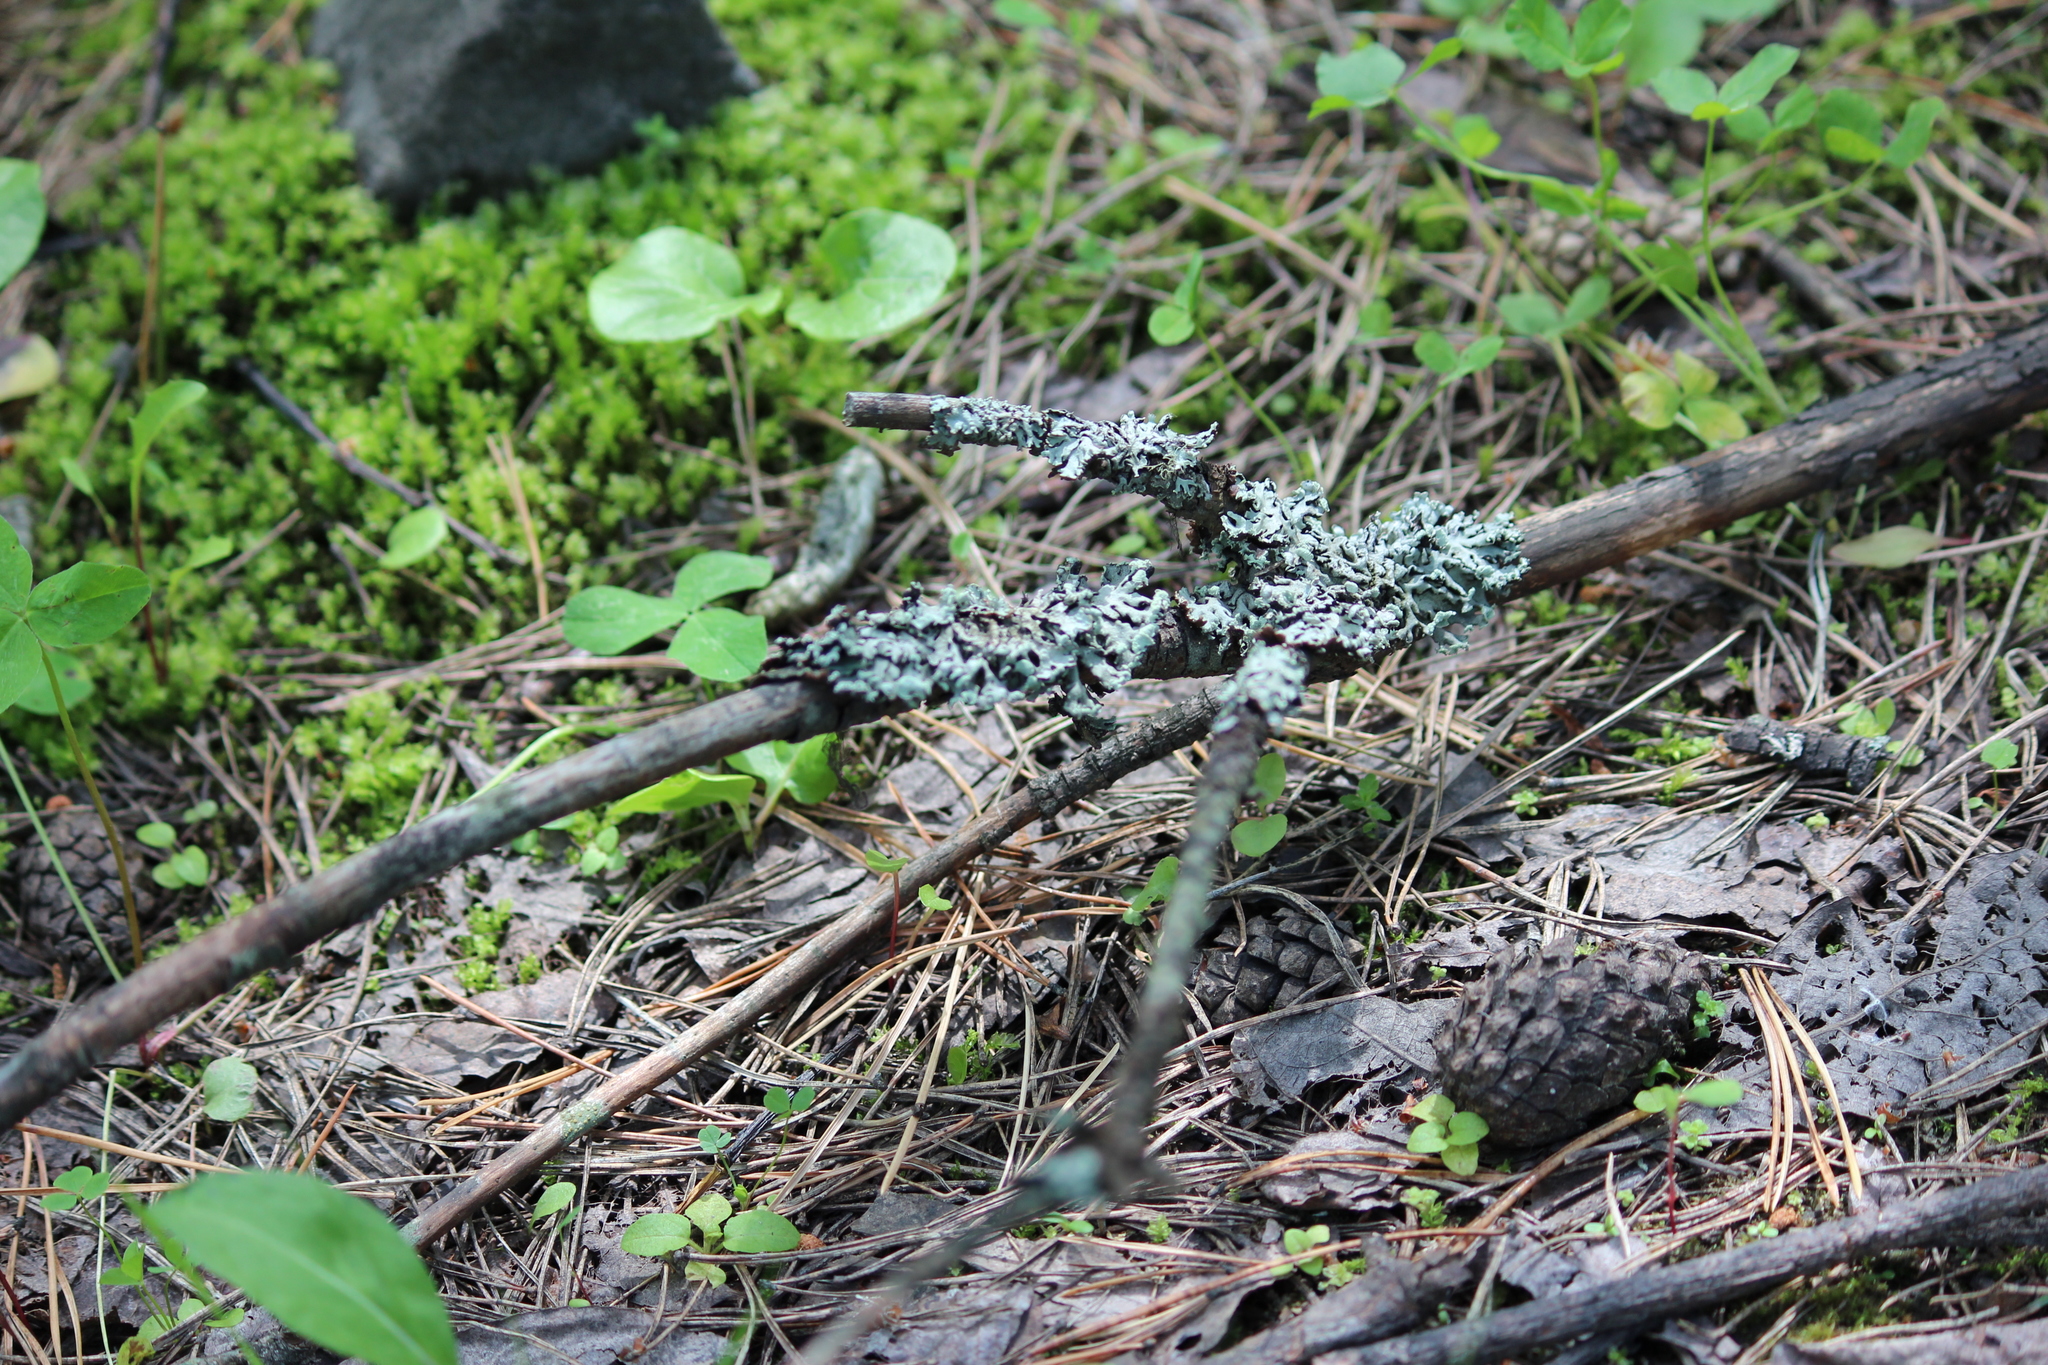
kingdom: Fungi
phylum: Ascomycota
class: Lecanoromycetes
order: Lecanorales
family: Parmeliaceae
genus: Hypogymnia
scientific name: Hypogymnia physodes
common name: Dark crottle
